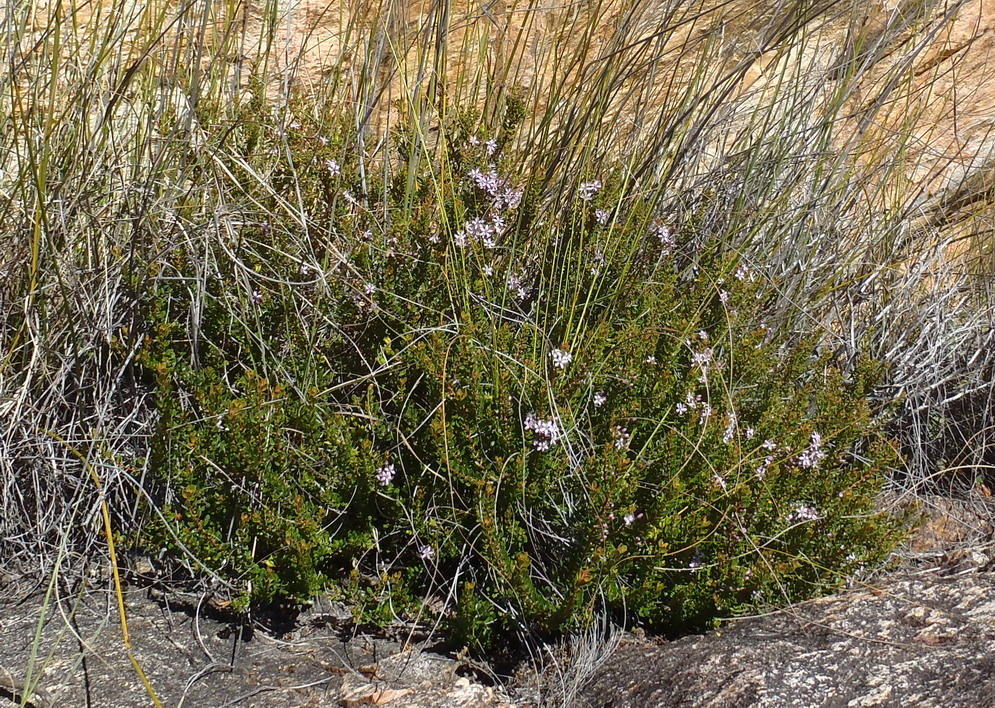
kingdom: Plantae
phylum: Tracheophyta
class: Magnoliopsida
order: Sapindales
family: Rutaceae
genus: Agathosma
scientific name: Agathosma ovata
